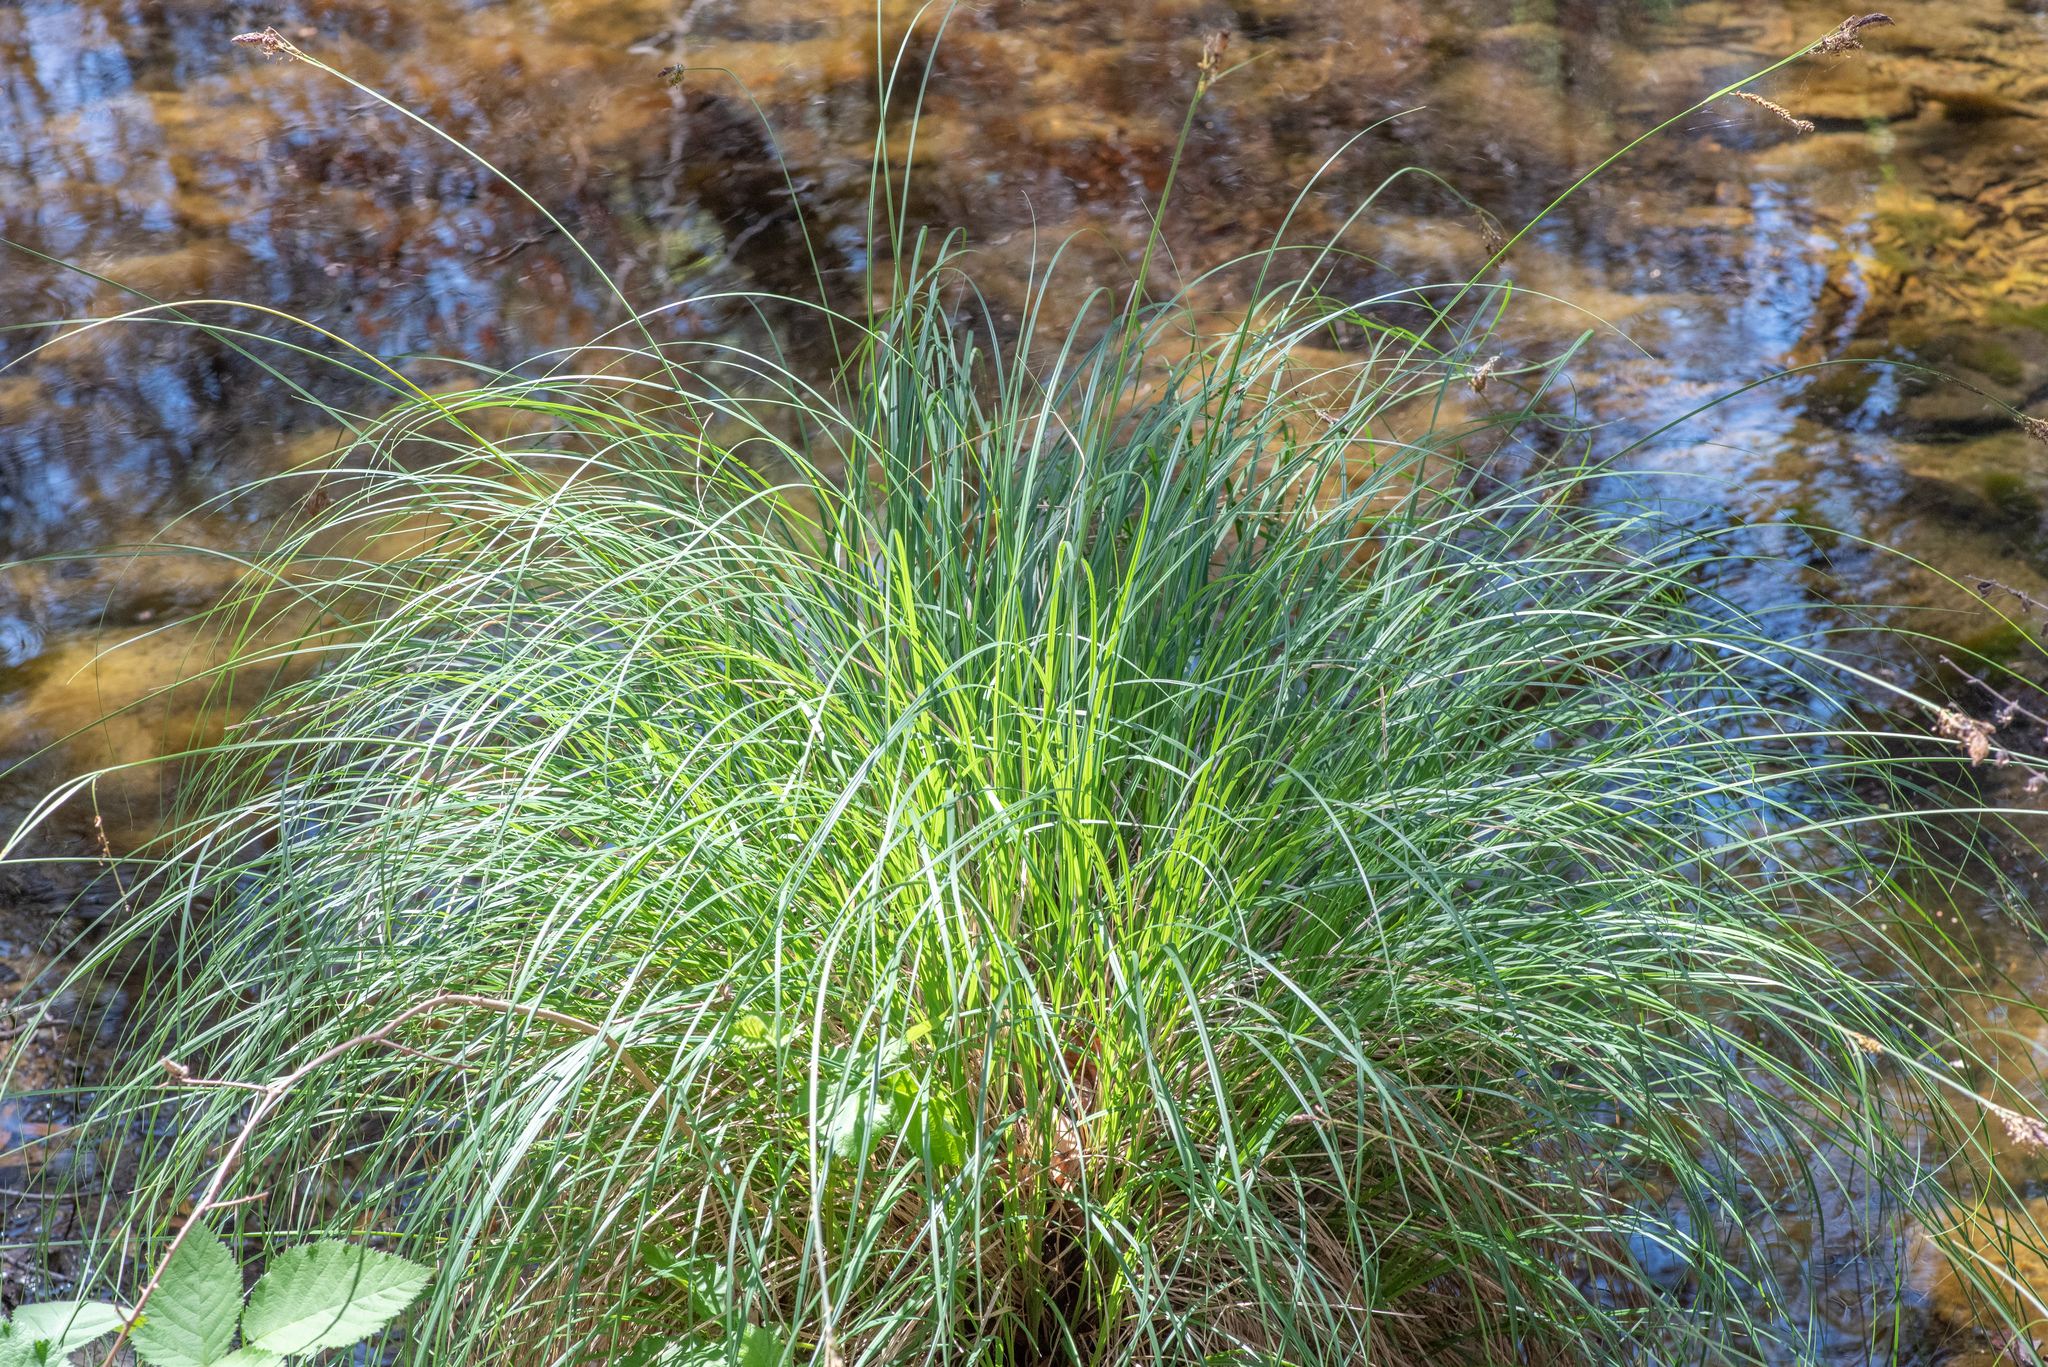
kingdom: Plantae
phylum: Tracheophyta
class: Liliopsida
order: Poales
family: Cyperaceae
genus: Carex
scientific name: Carex nudata
